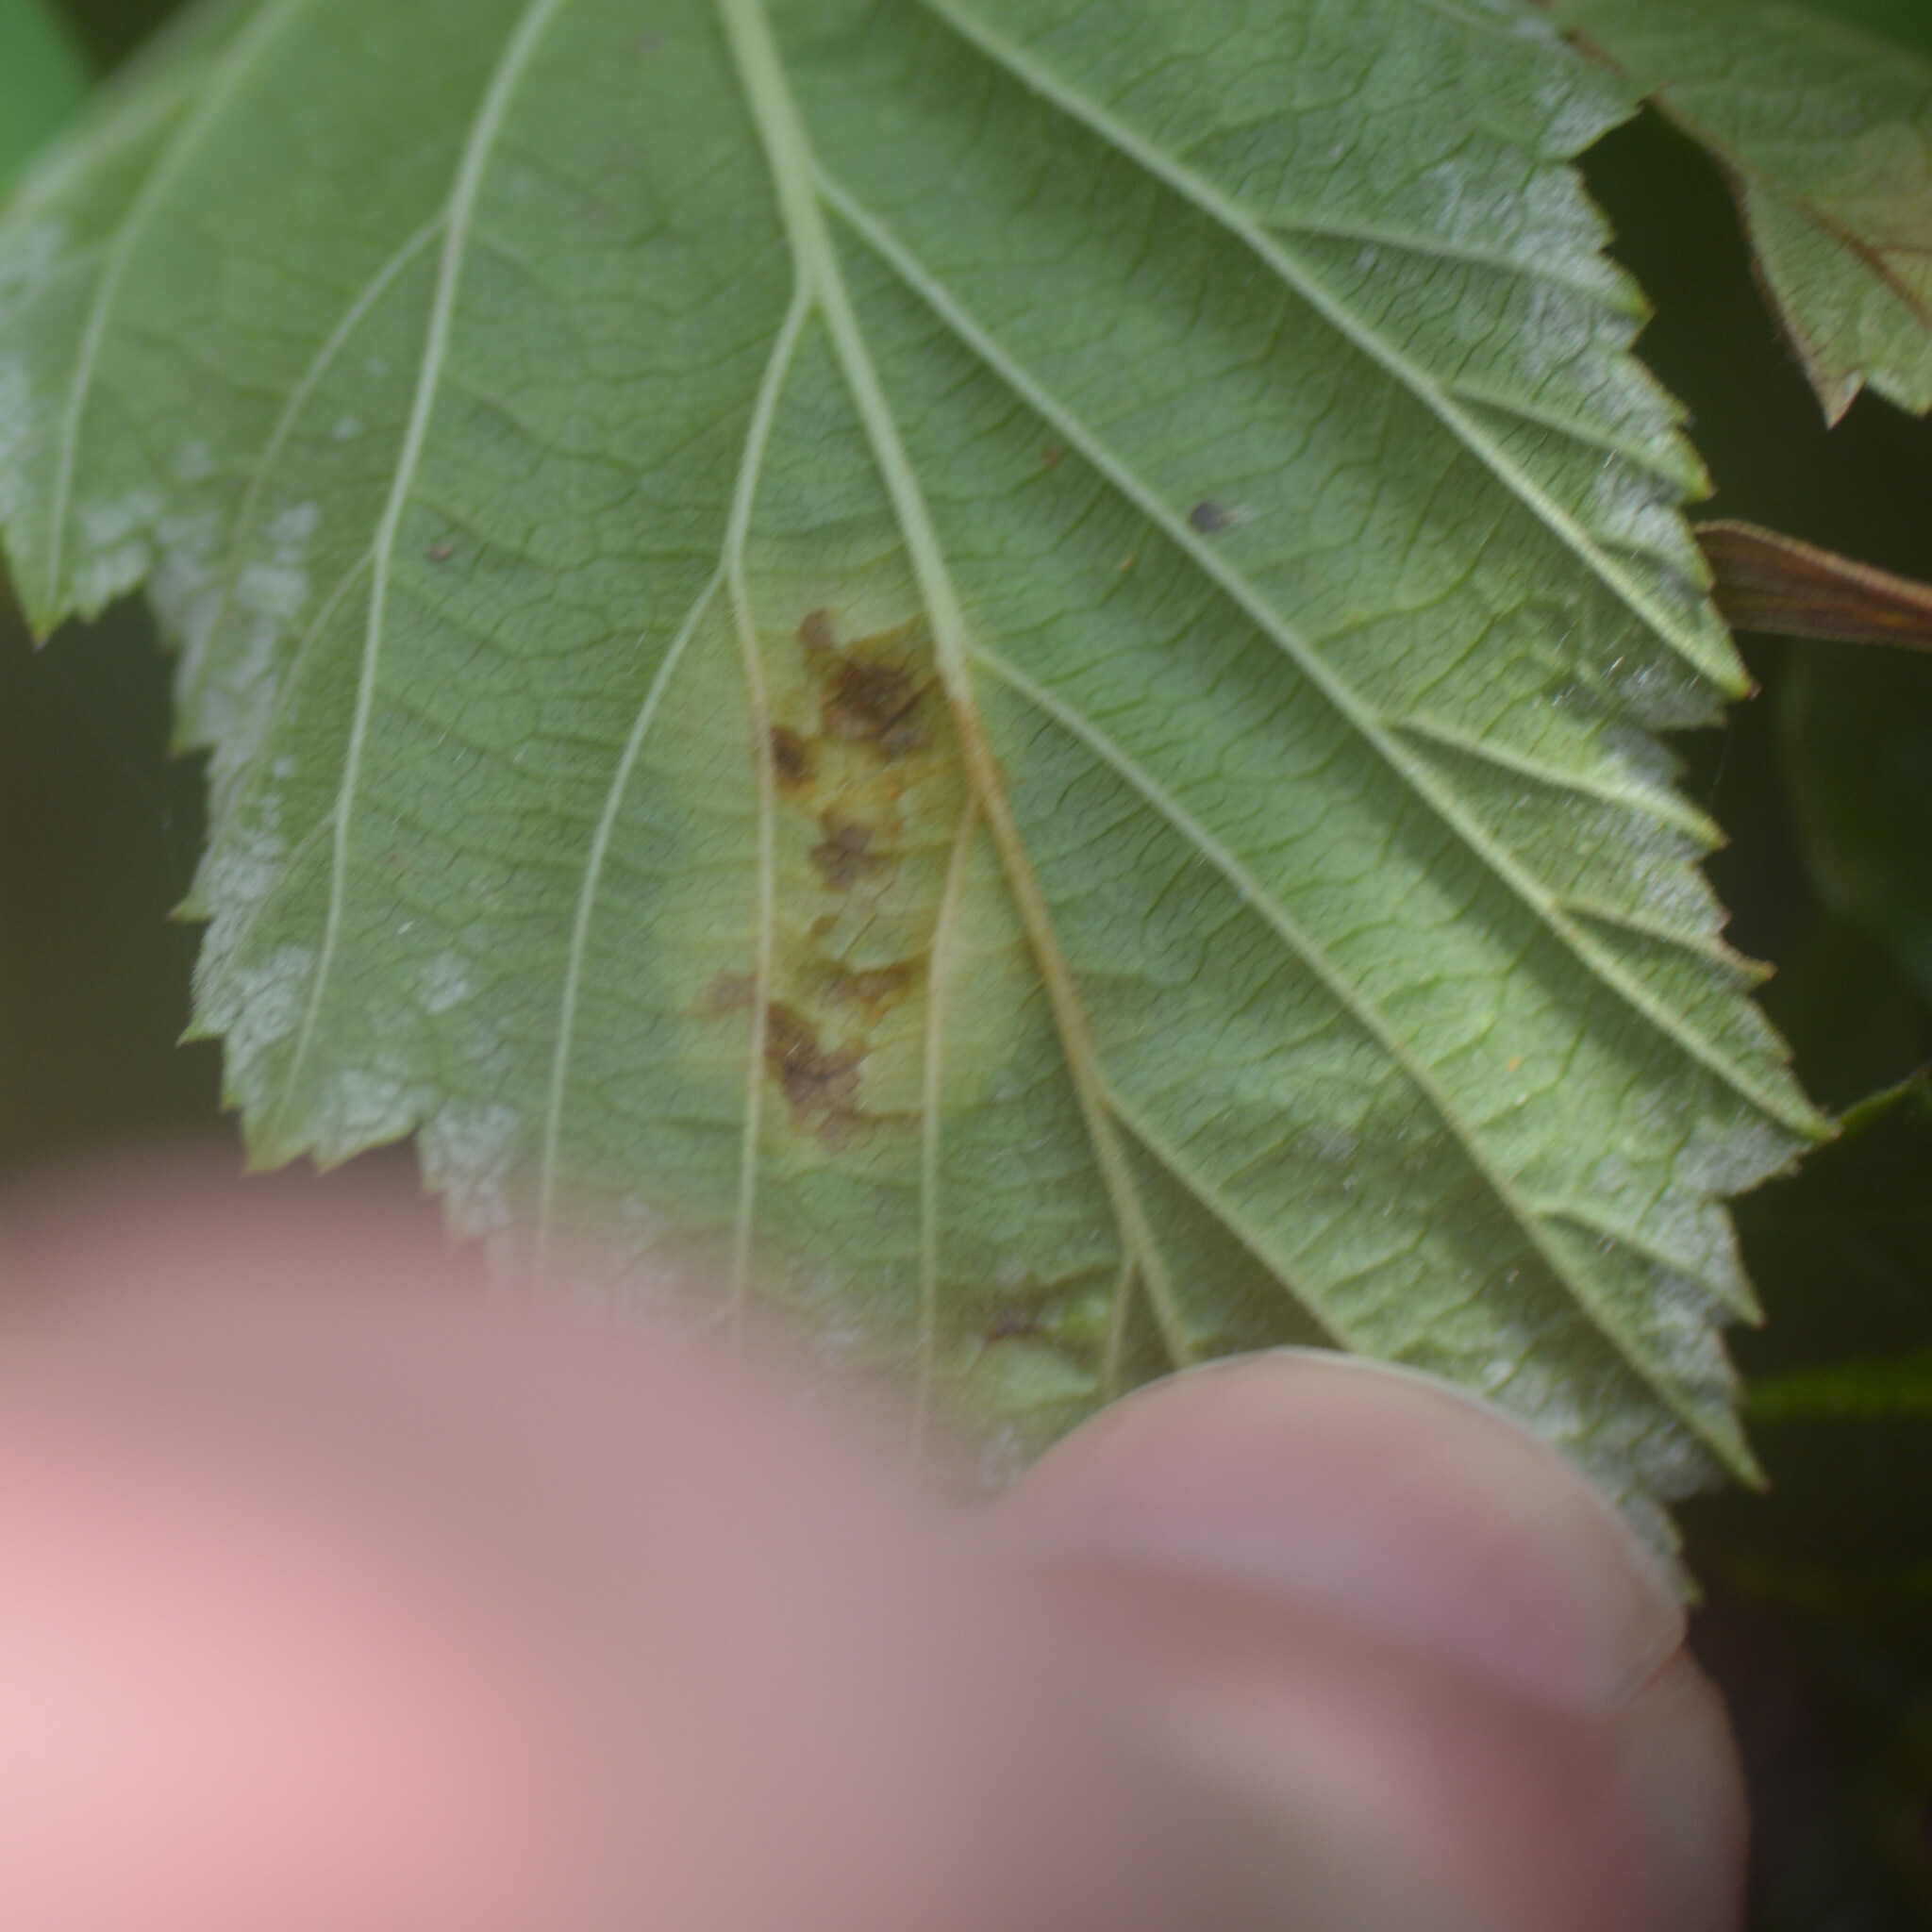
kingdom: Animalia
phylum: Arthropoda
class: Insecta
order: Diptera
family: Cecidomyiidae
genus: Dasineura
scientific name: Dasineura pustulans
